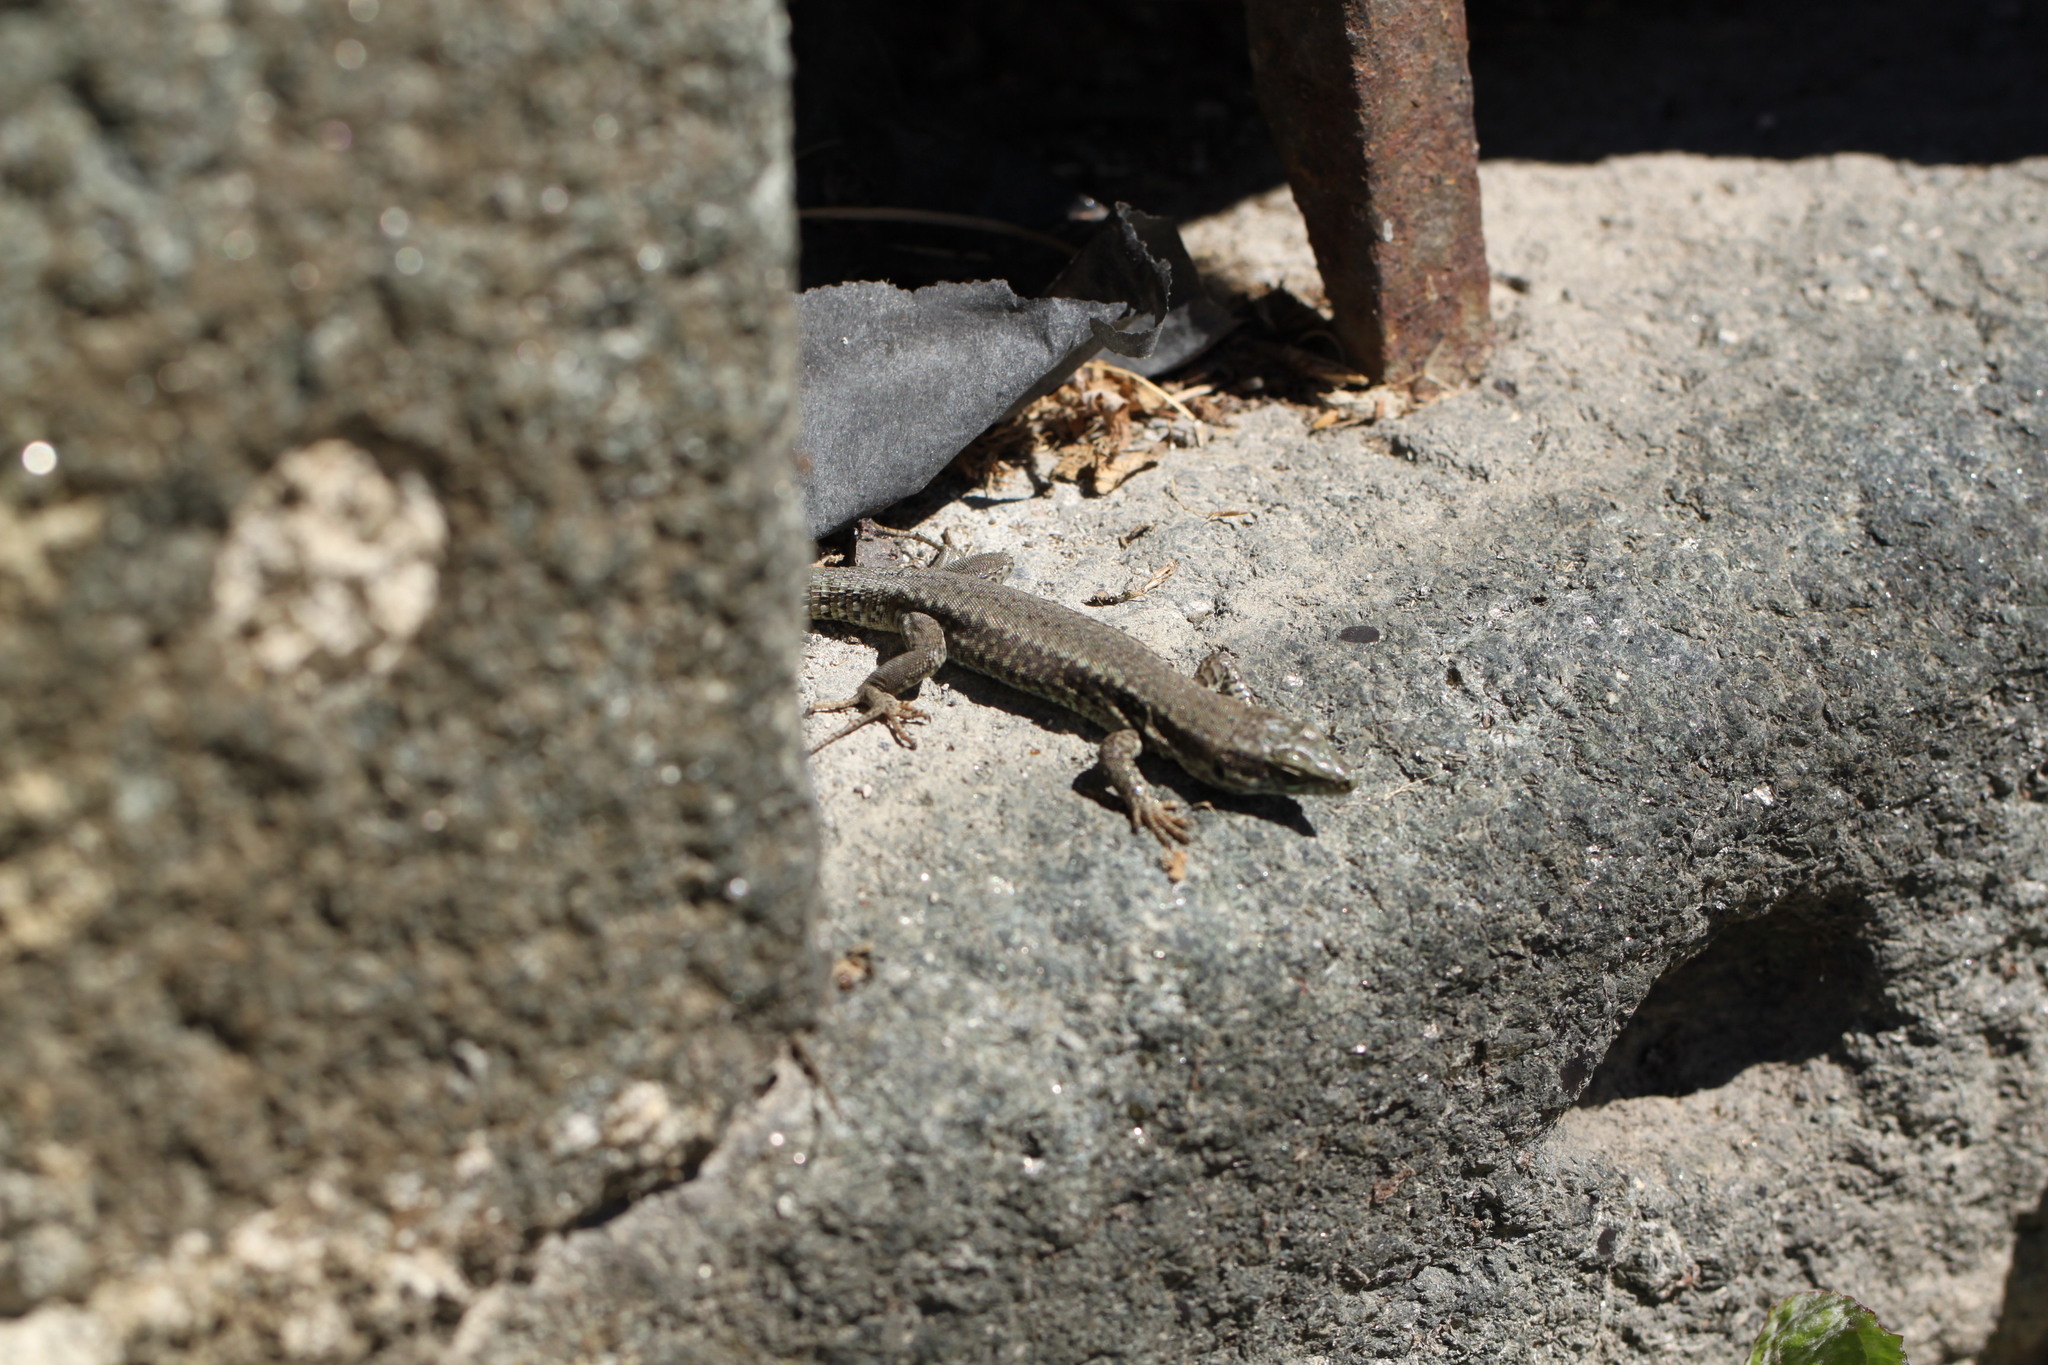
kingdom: Animalia
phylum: Chordata
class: Squamata
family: Lacertidae
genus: Podarcis
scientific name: Podarcis muralis
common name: Common wall lizard
